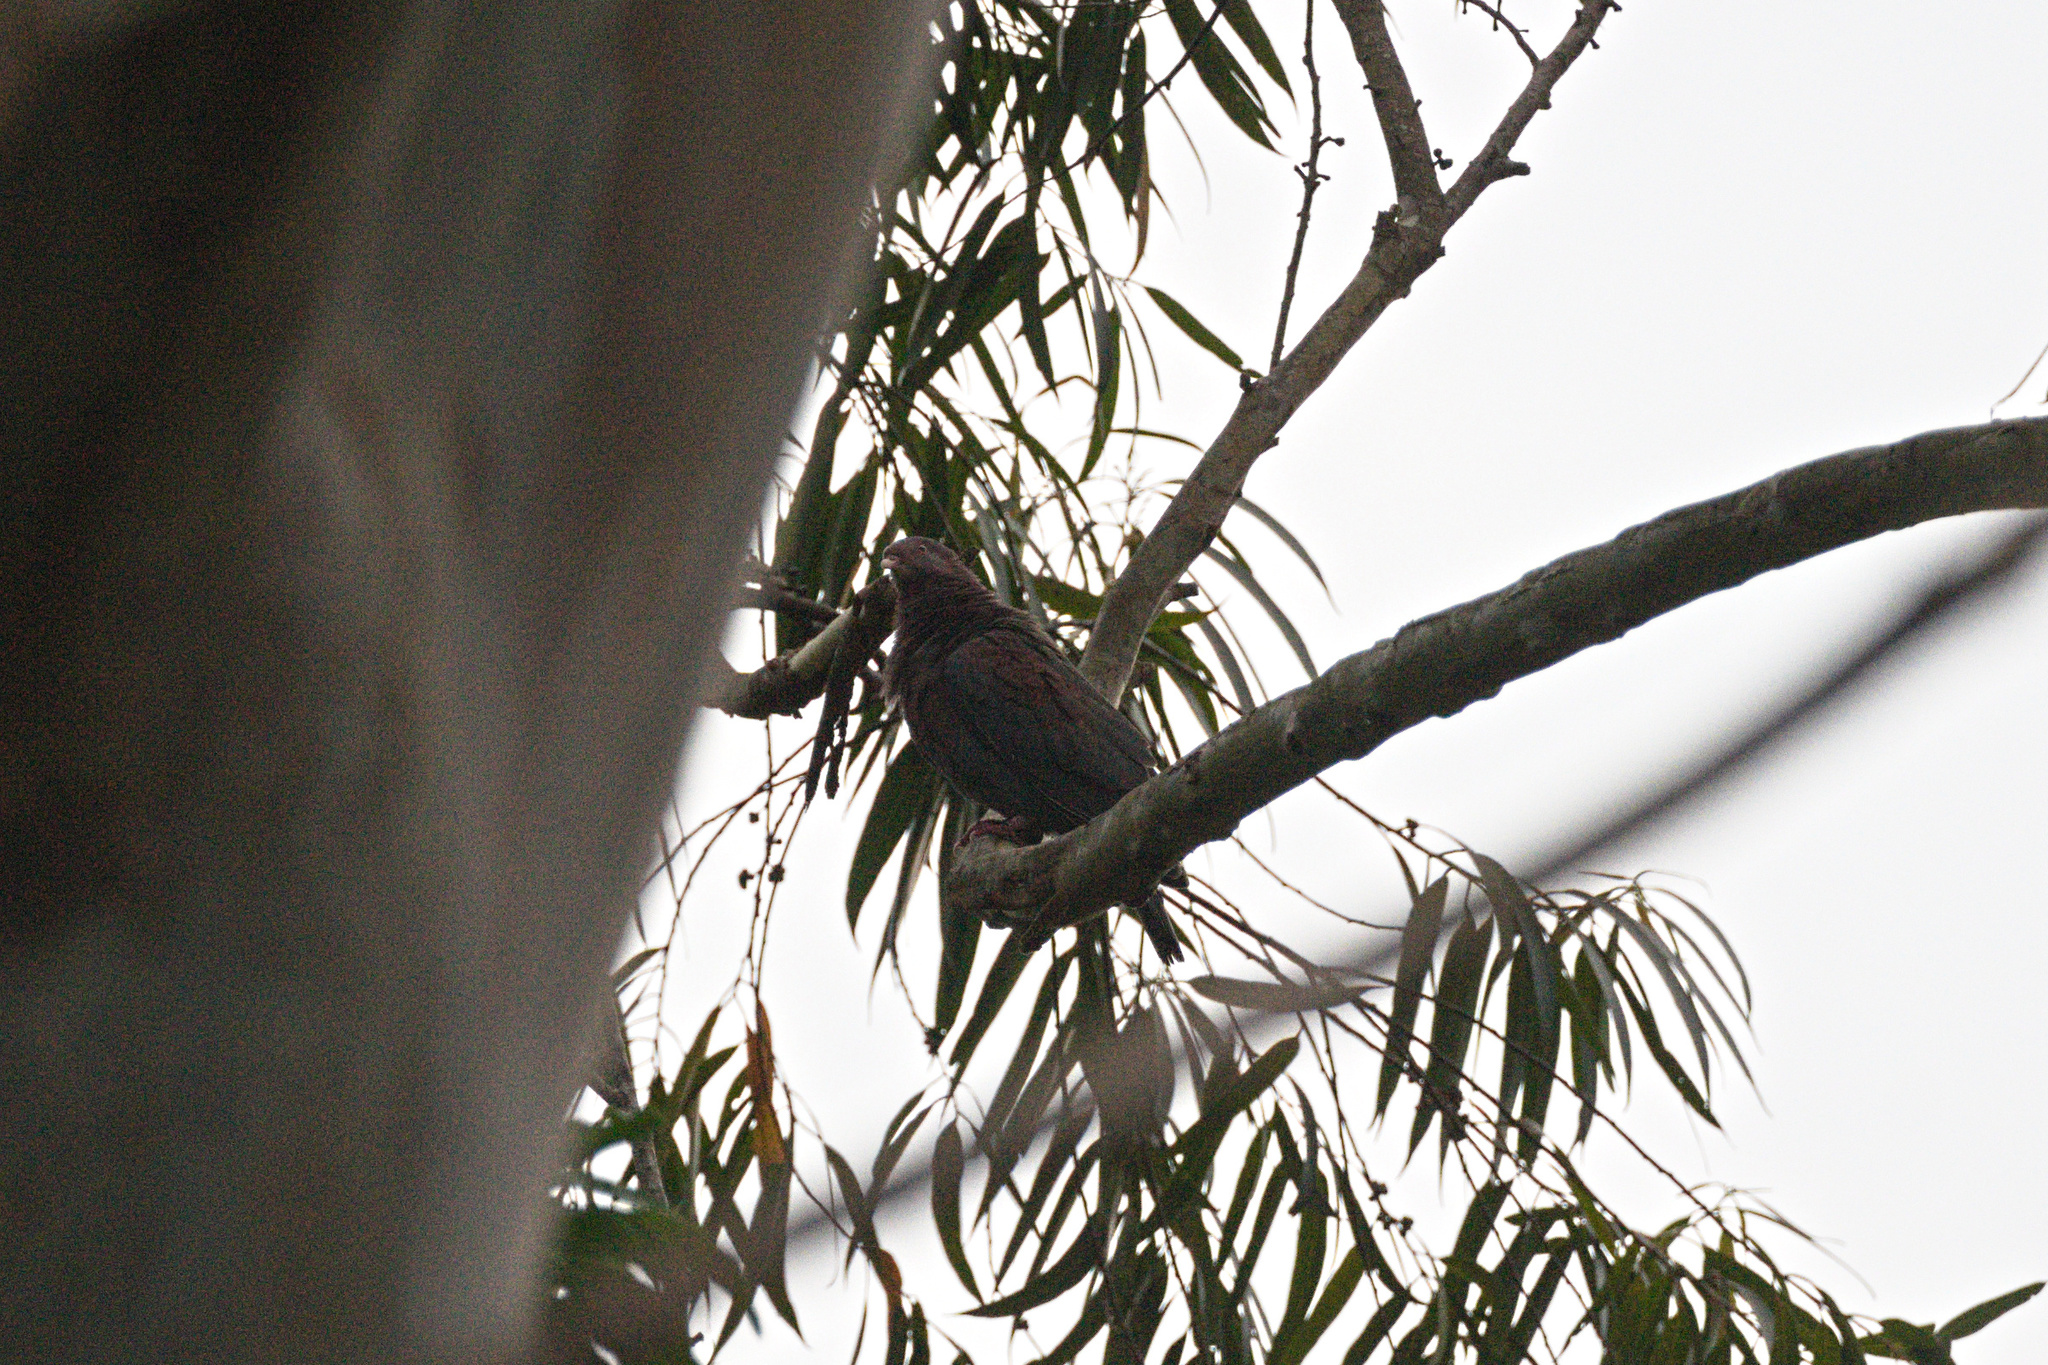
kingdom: Animalia
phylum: Chordata
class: Aves
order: Columbiformes
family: Columbidae
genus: Patagioenas
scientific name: Patagioenas flavirostris
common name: Red-billed pigeon
